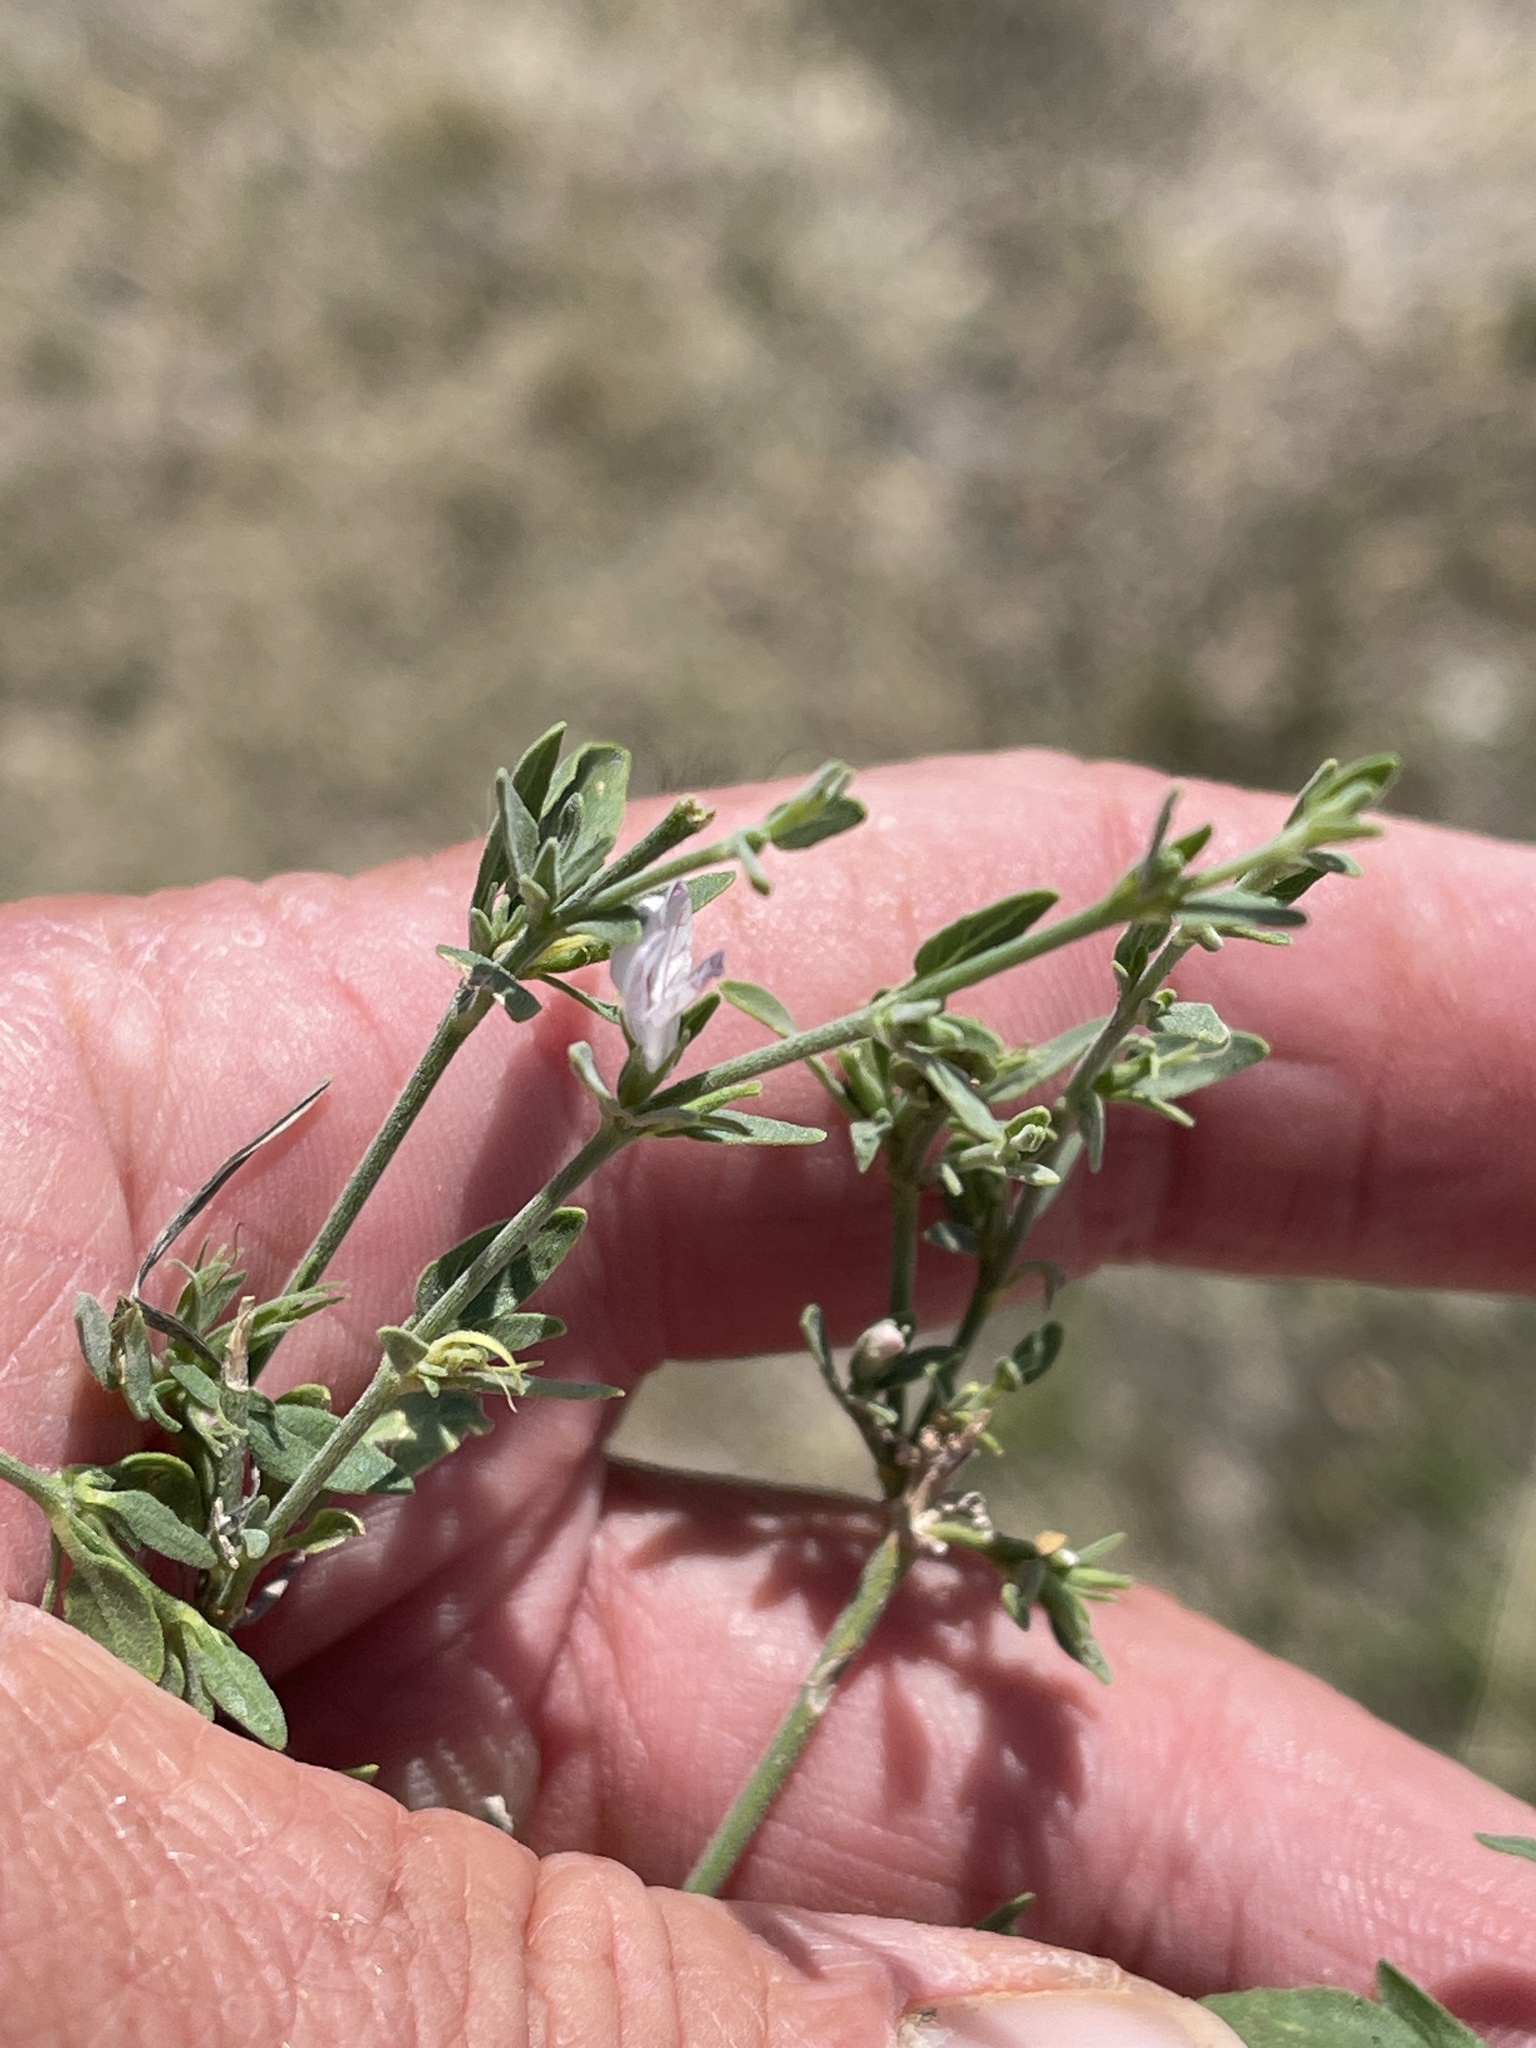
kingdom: Plantae
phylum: Tracheophyta
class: Magnoliopsida
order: Lamiales
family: Acanthaceae
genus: Carlowrightia
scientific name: Carlowrightia texana
